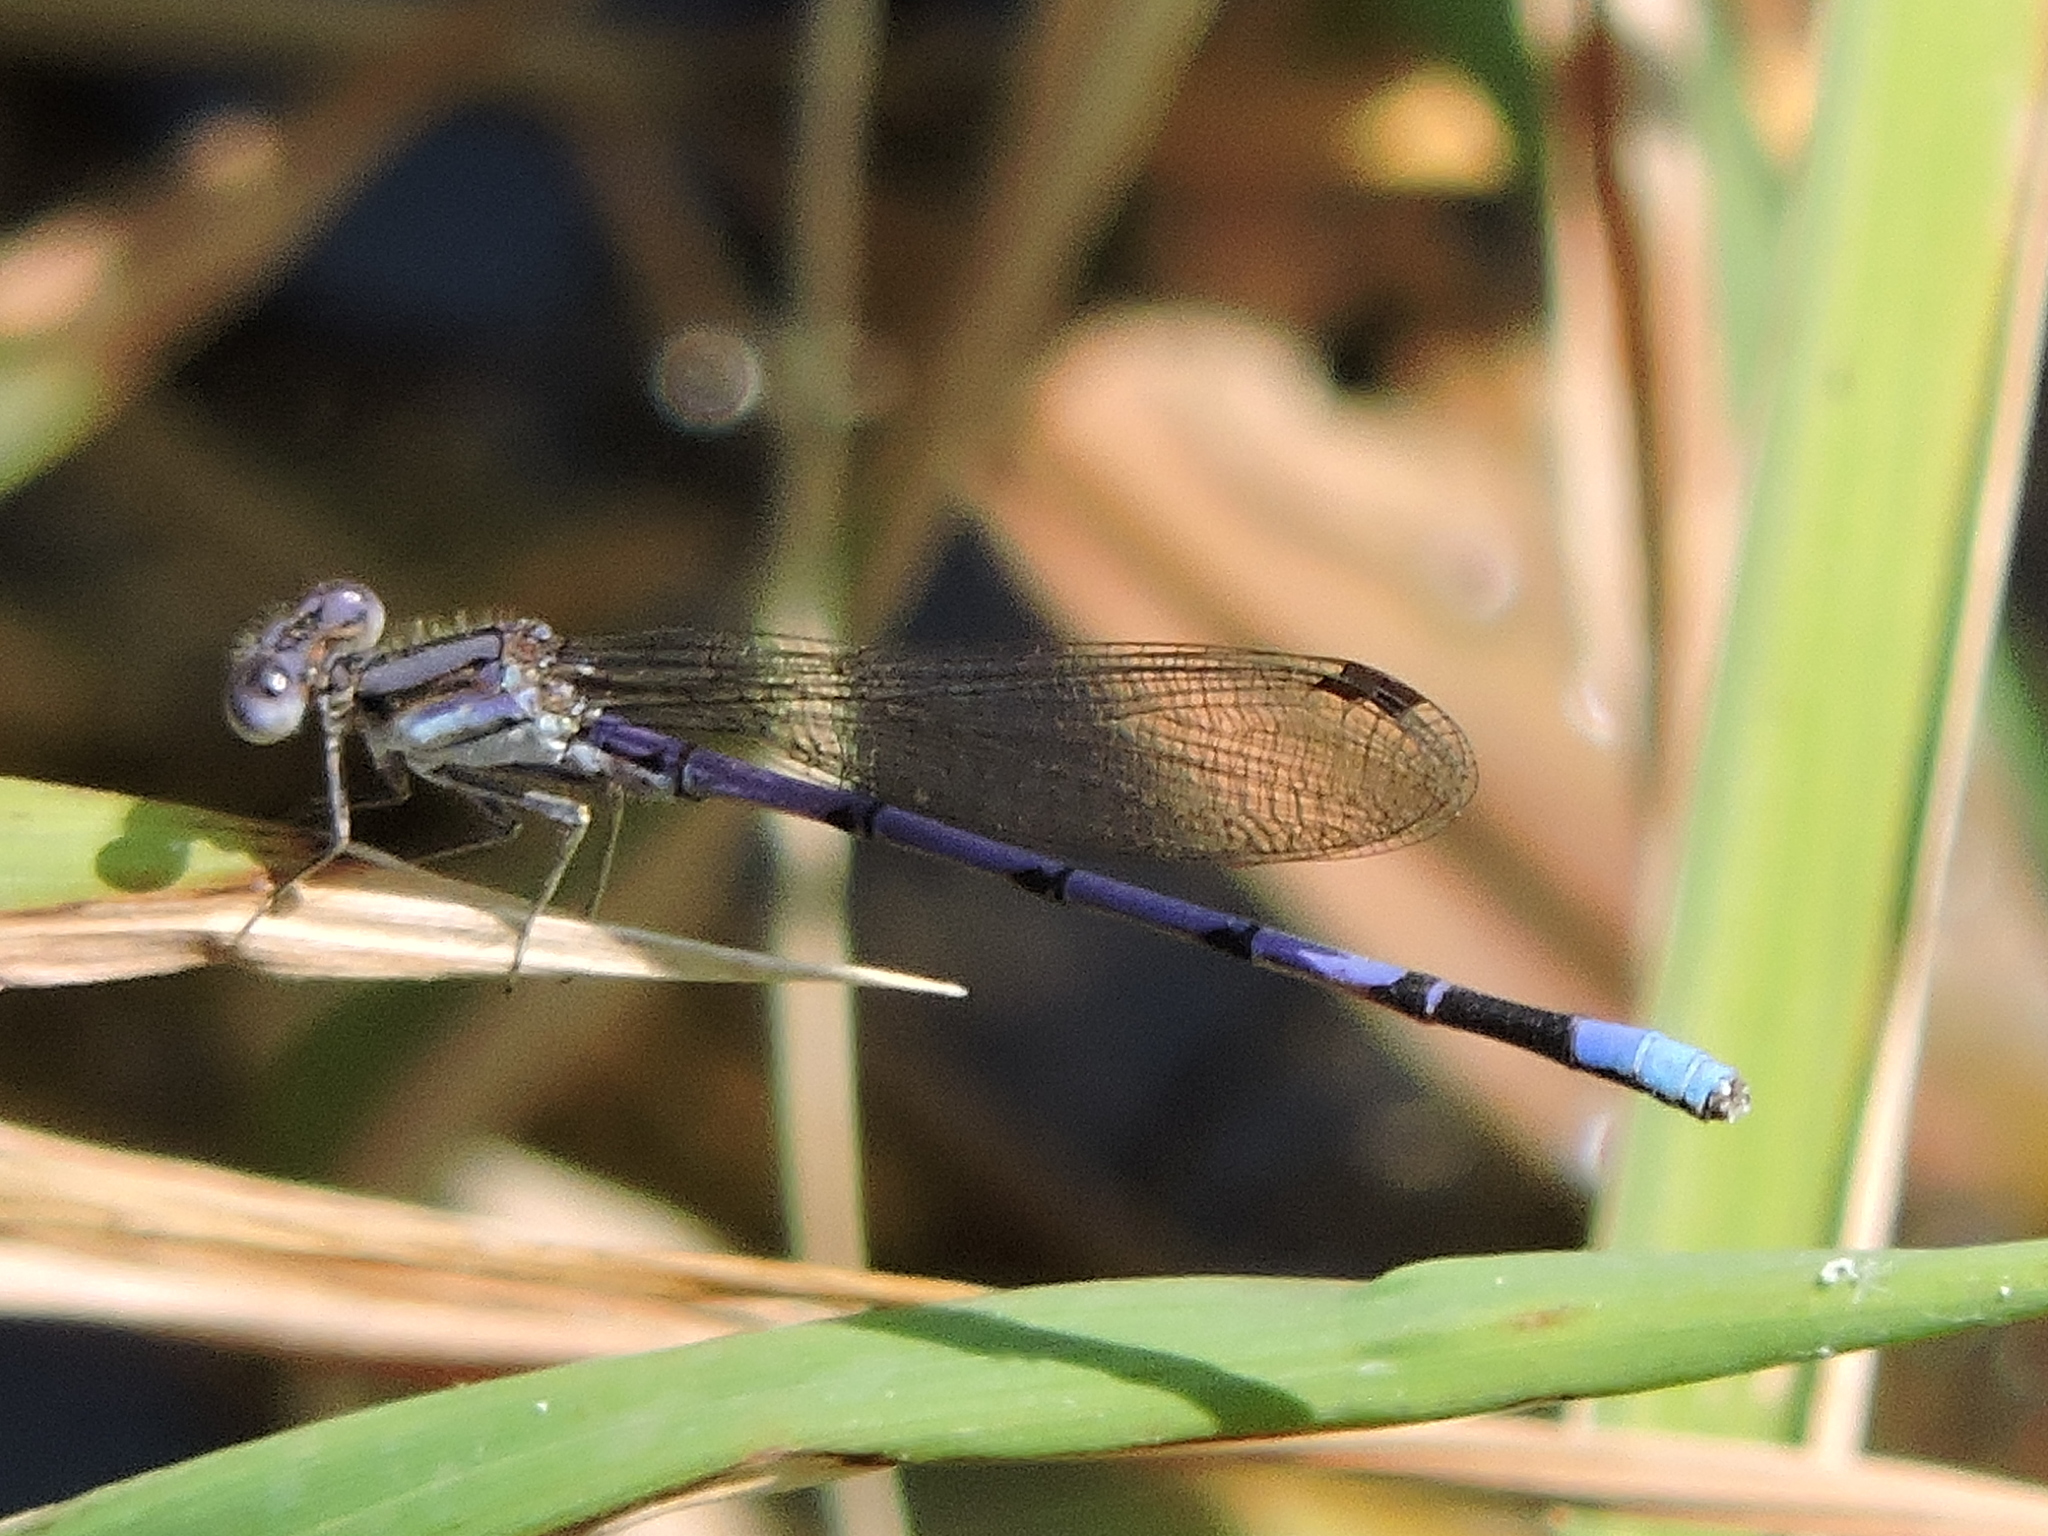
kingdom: Animalia
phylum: Arthropoda
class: Insecta
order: Odonata
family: Coenagrionidae
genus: Argia
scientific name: Argia fumipennis
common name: Variable dancer
